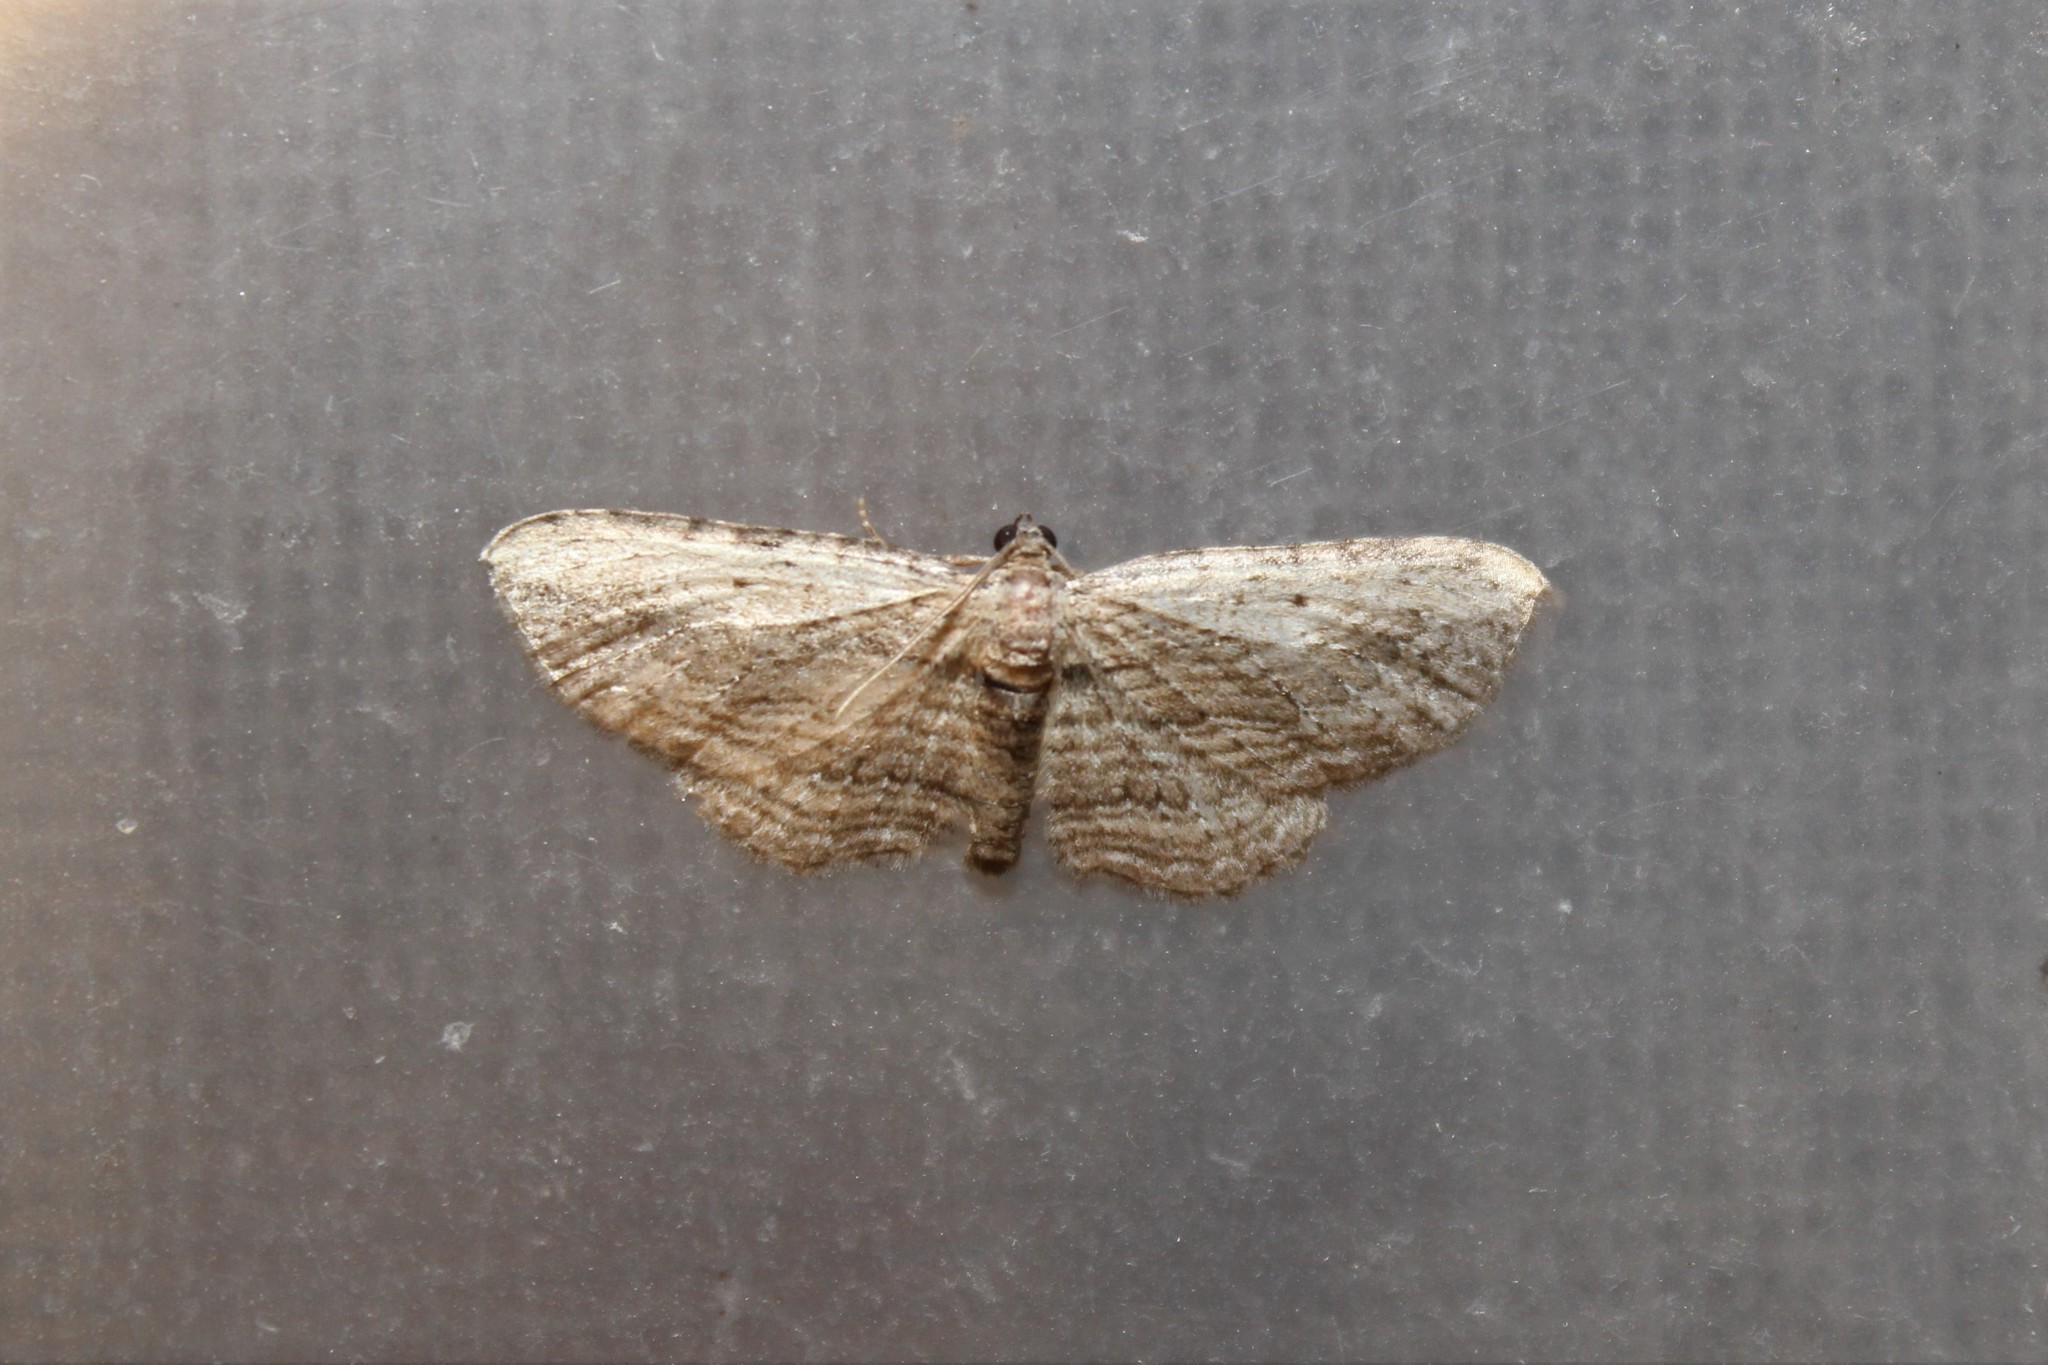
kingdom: Animalia
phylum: Arthropoda
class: Insecta
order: Lepidoptera
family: Geometridae
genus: Horisme
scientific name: Horisme intestinata
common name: Brown bark carpet
